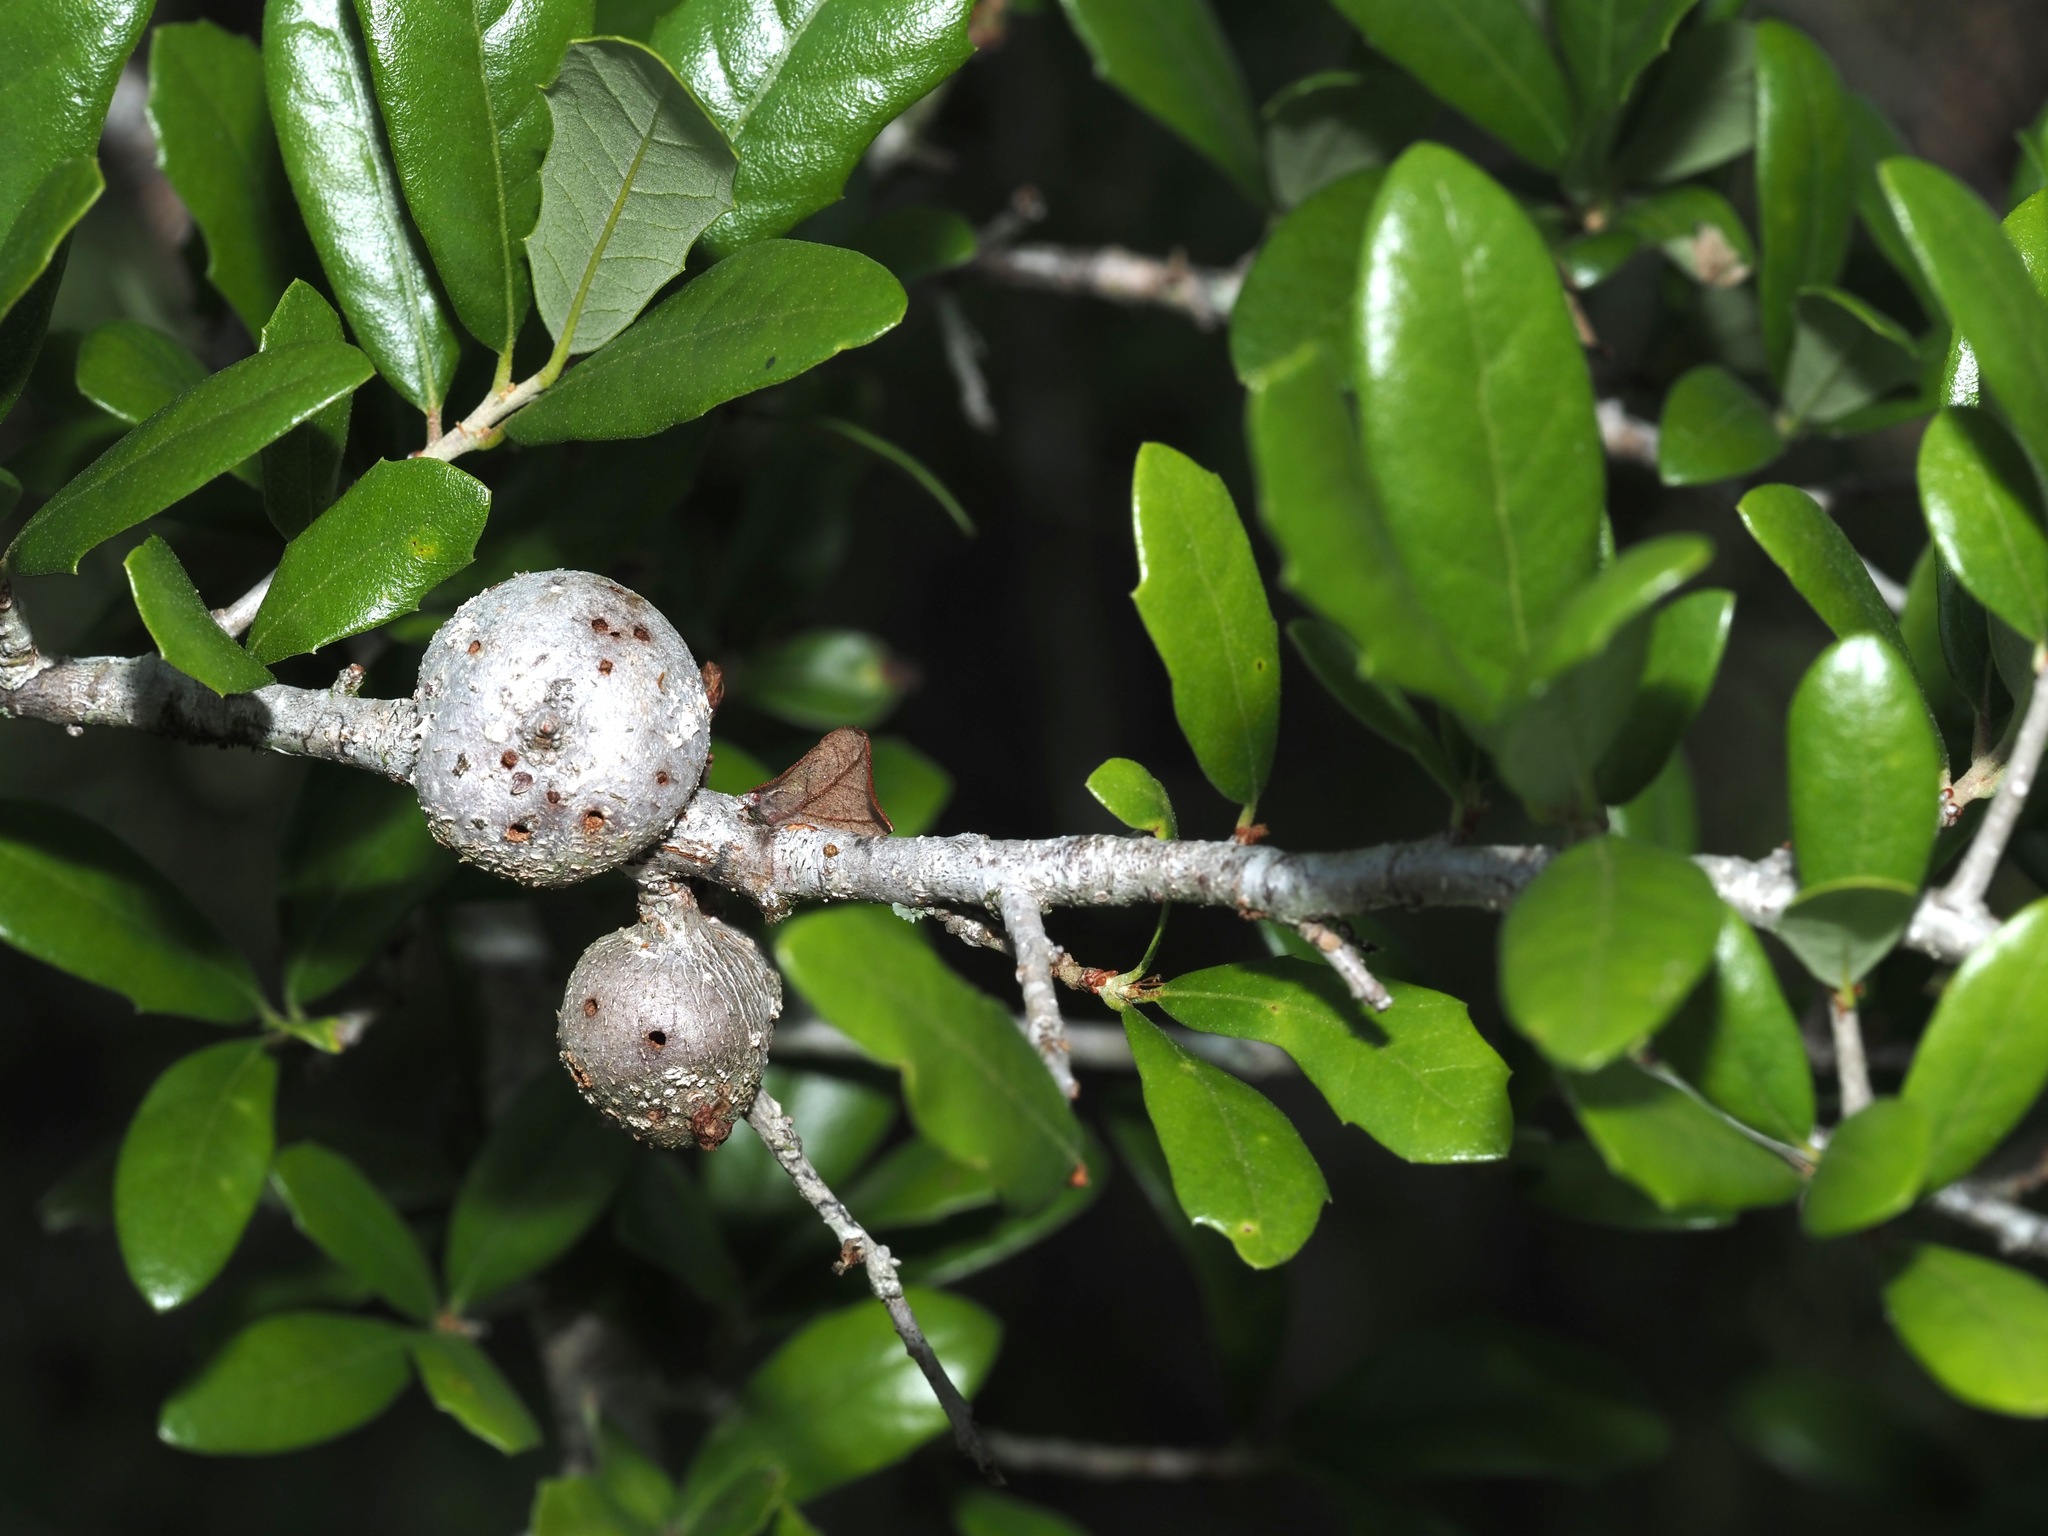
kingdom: Animalia
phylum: Arthropoda
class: Insecta
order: Hymenoptera
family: Cynipidae
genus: Callirhytis
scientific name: Callirhytis
